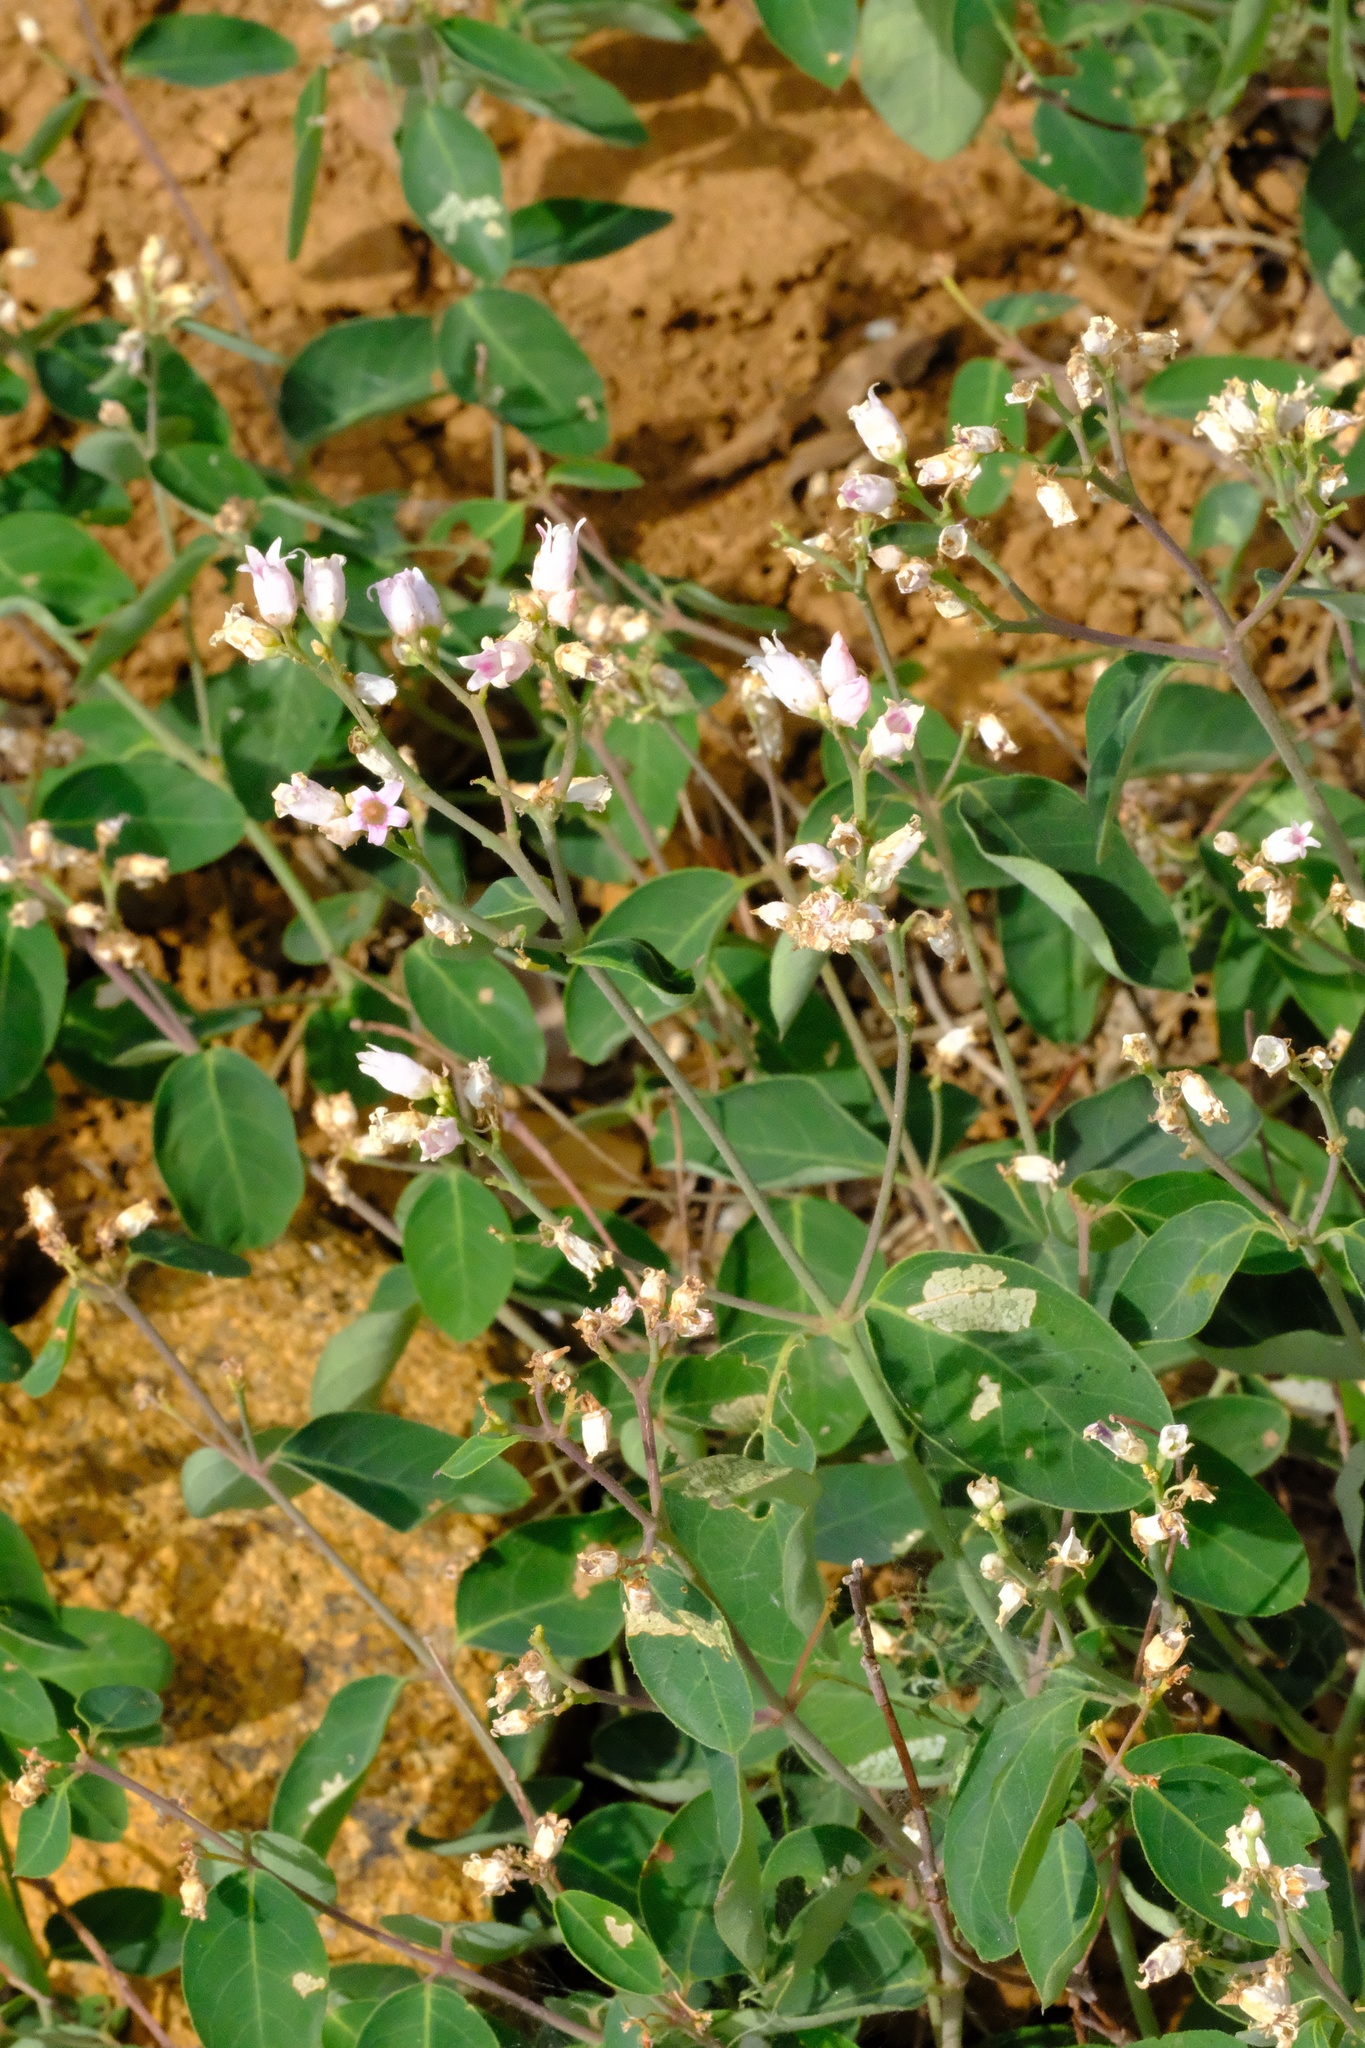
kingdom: Plantae
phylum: Tracheophyta
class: Magnoliopsida
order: Gentianales
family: Apocynaceae
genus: Apocynum
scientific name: Apocynum androsaemifolium
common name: Spreading dogbane
